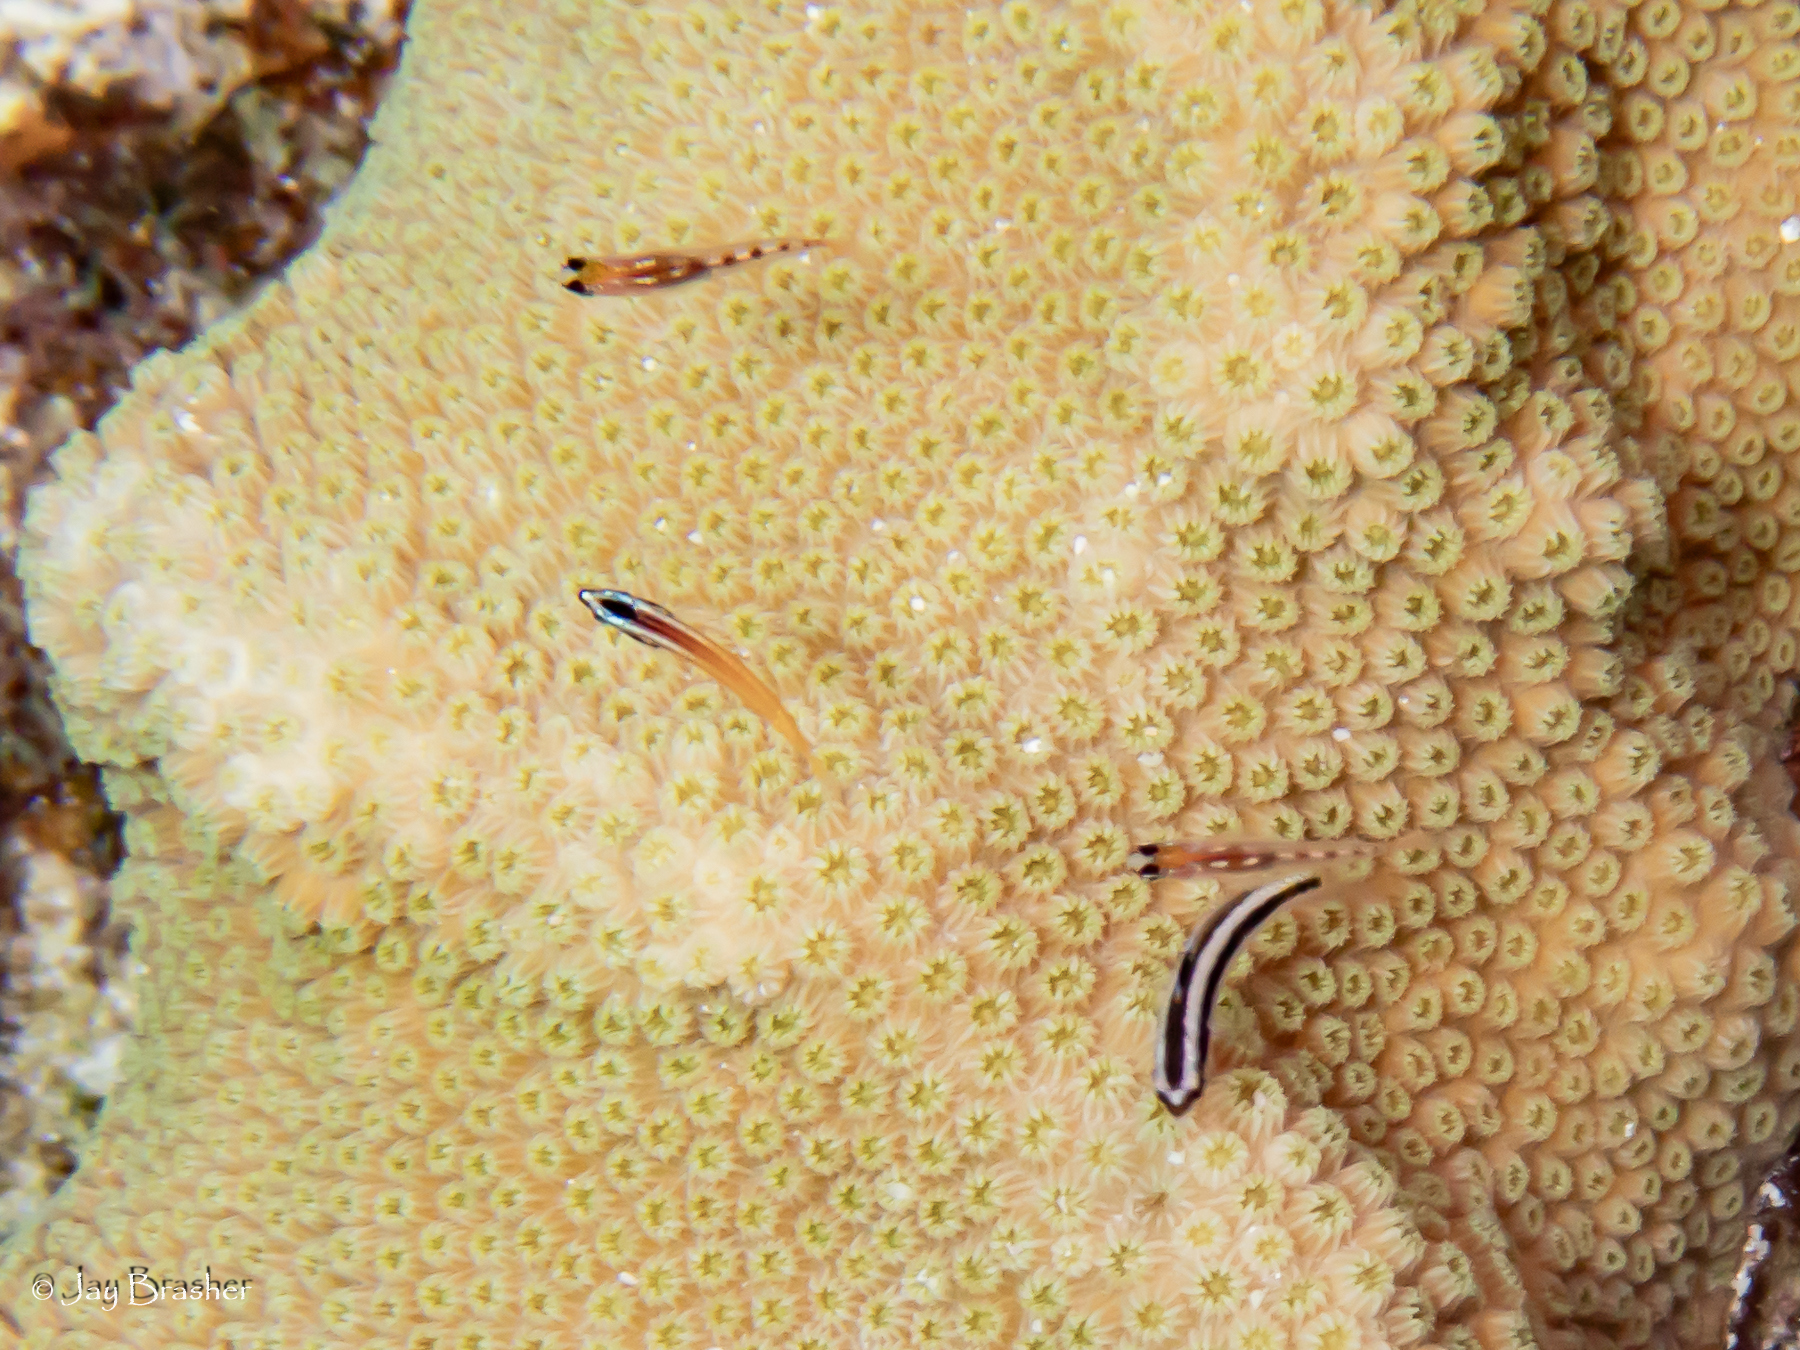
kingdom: Animalia
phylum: Chordata
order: Perciformes
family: Labridae
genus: Thalassoma
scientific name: Thalassoma bifasciatum
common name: Bluehead wrasse
